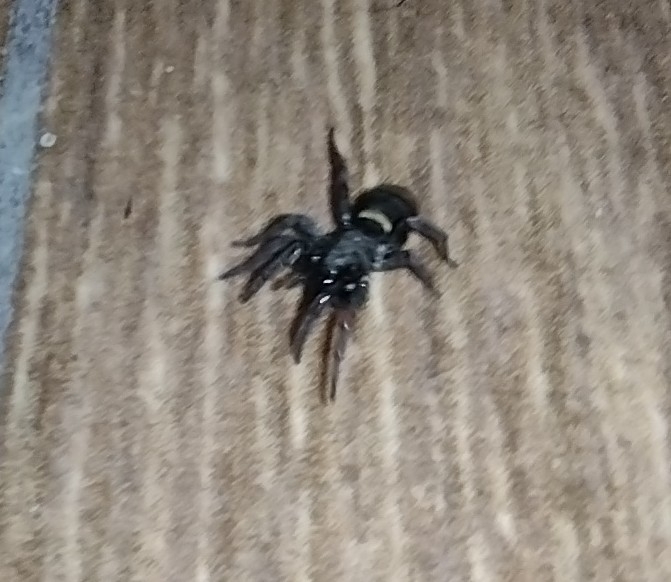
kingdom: Animalia
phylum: Arthropoda
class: Arachnida
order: Araneae
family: Gnaphosidae
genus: Latonigena
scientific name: Latonigena auricomis
